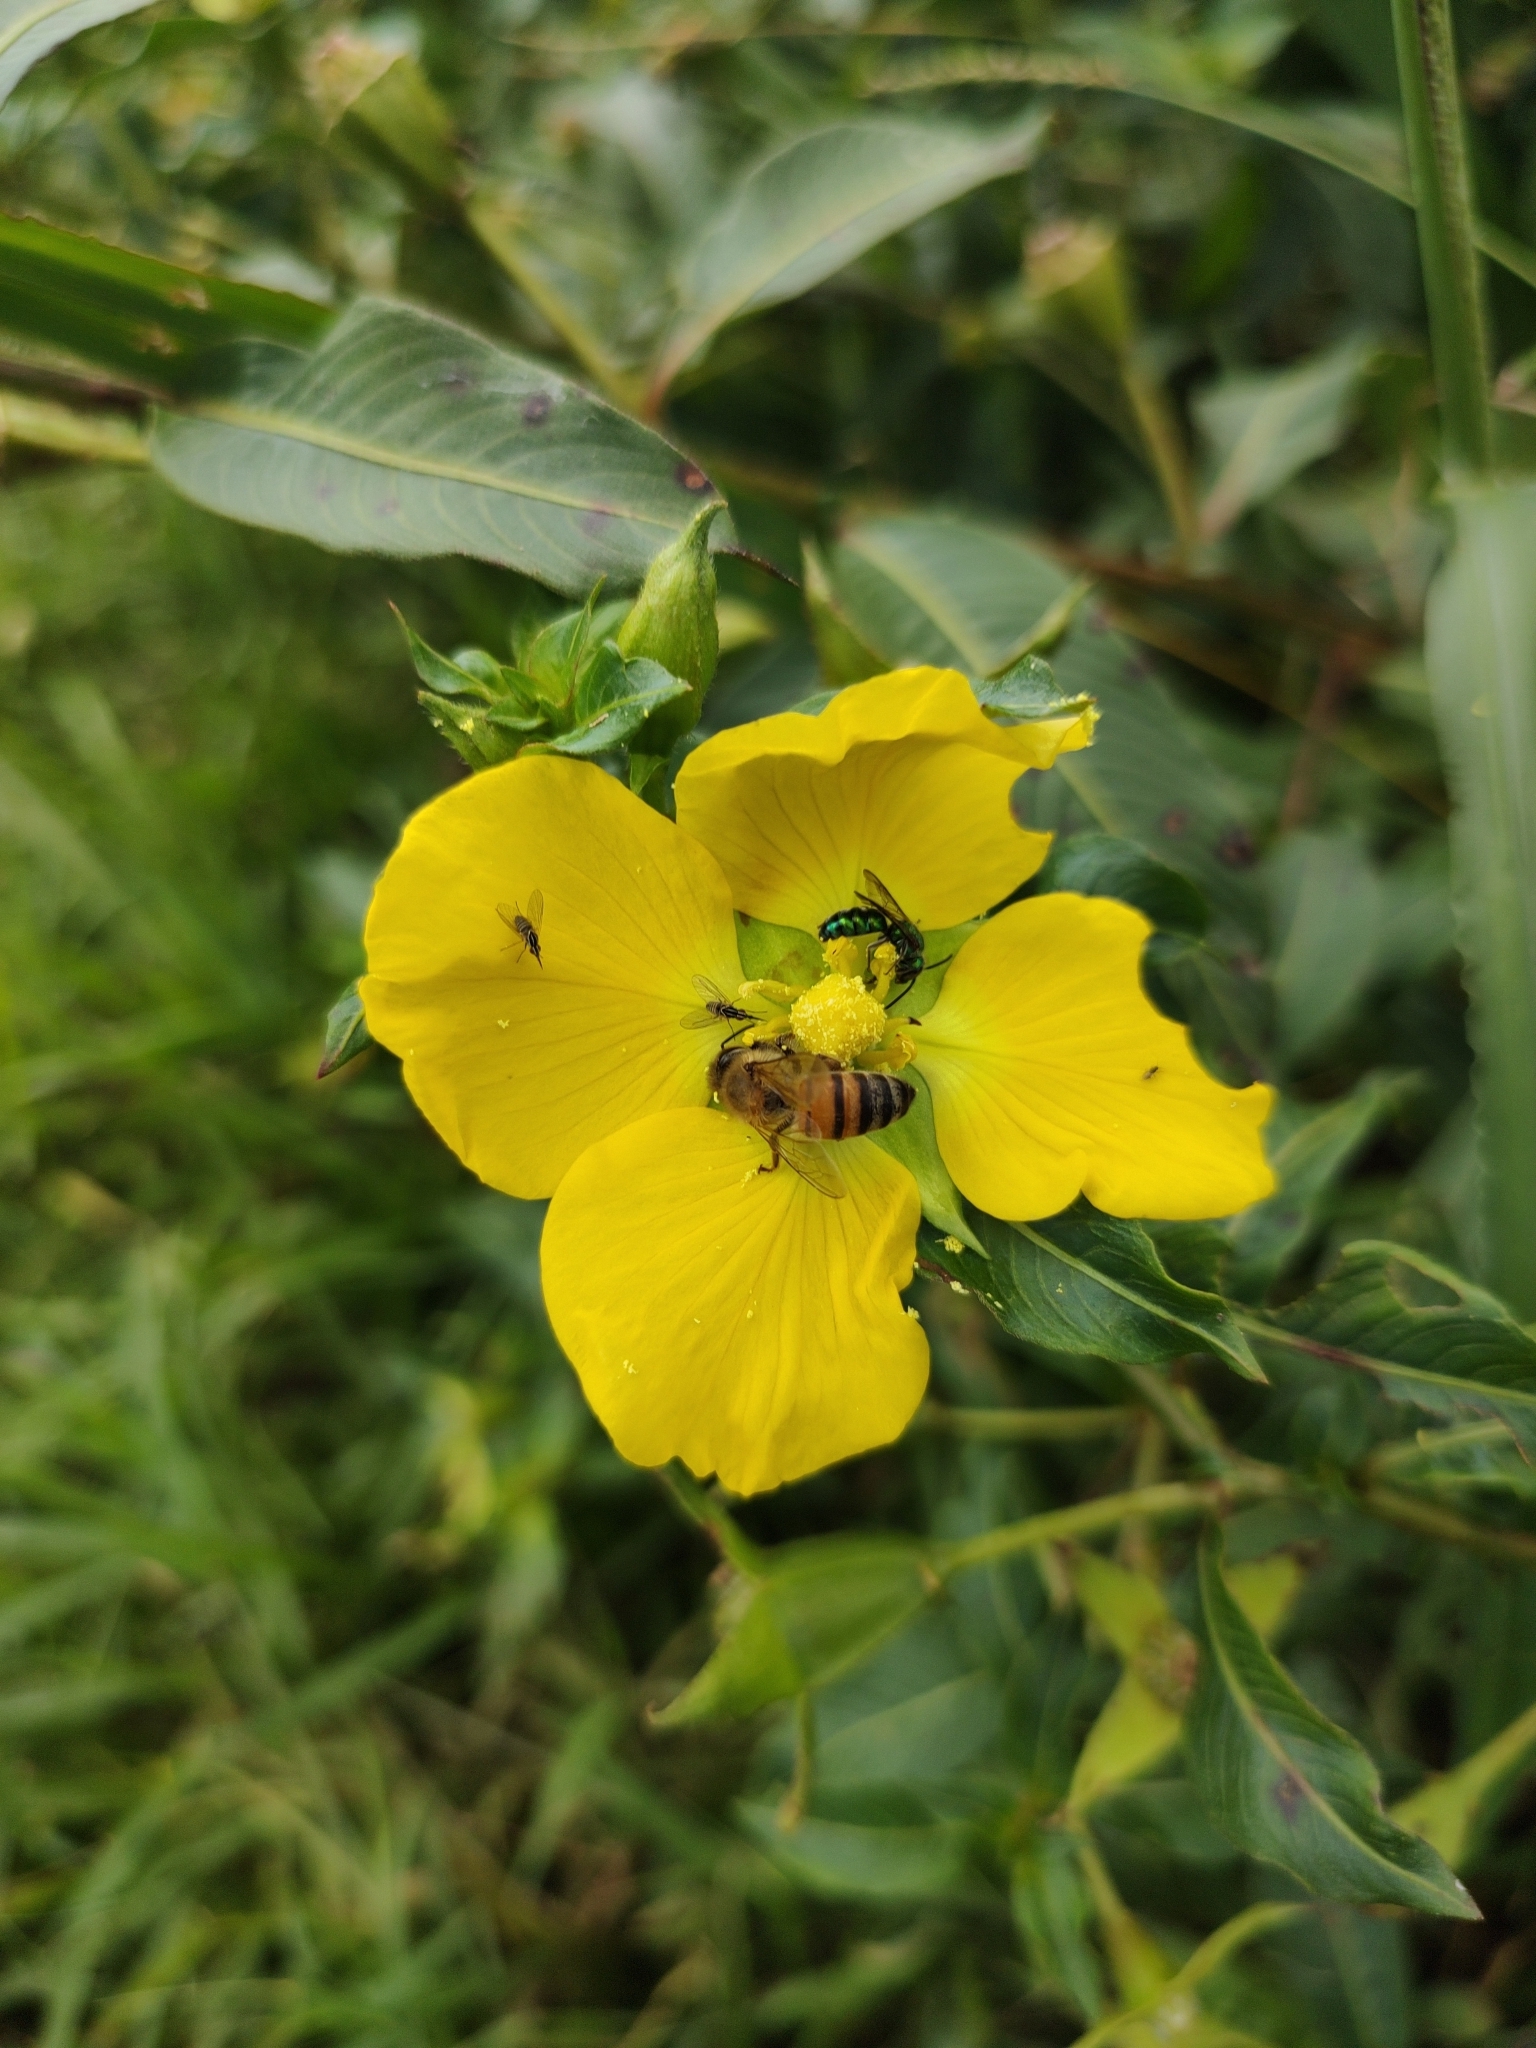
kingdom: Animalia
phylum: Arthropoda
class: Insecta
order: Hymenoptera
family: Apidae
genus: Apis
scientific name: Apis mellifera
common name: Honey bee
